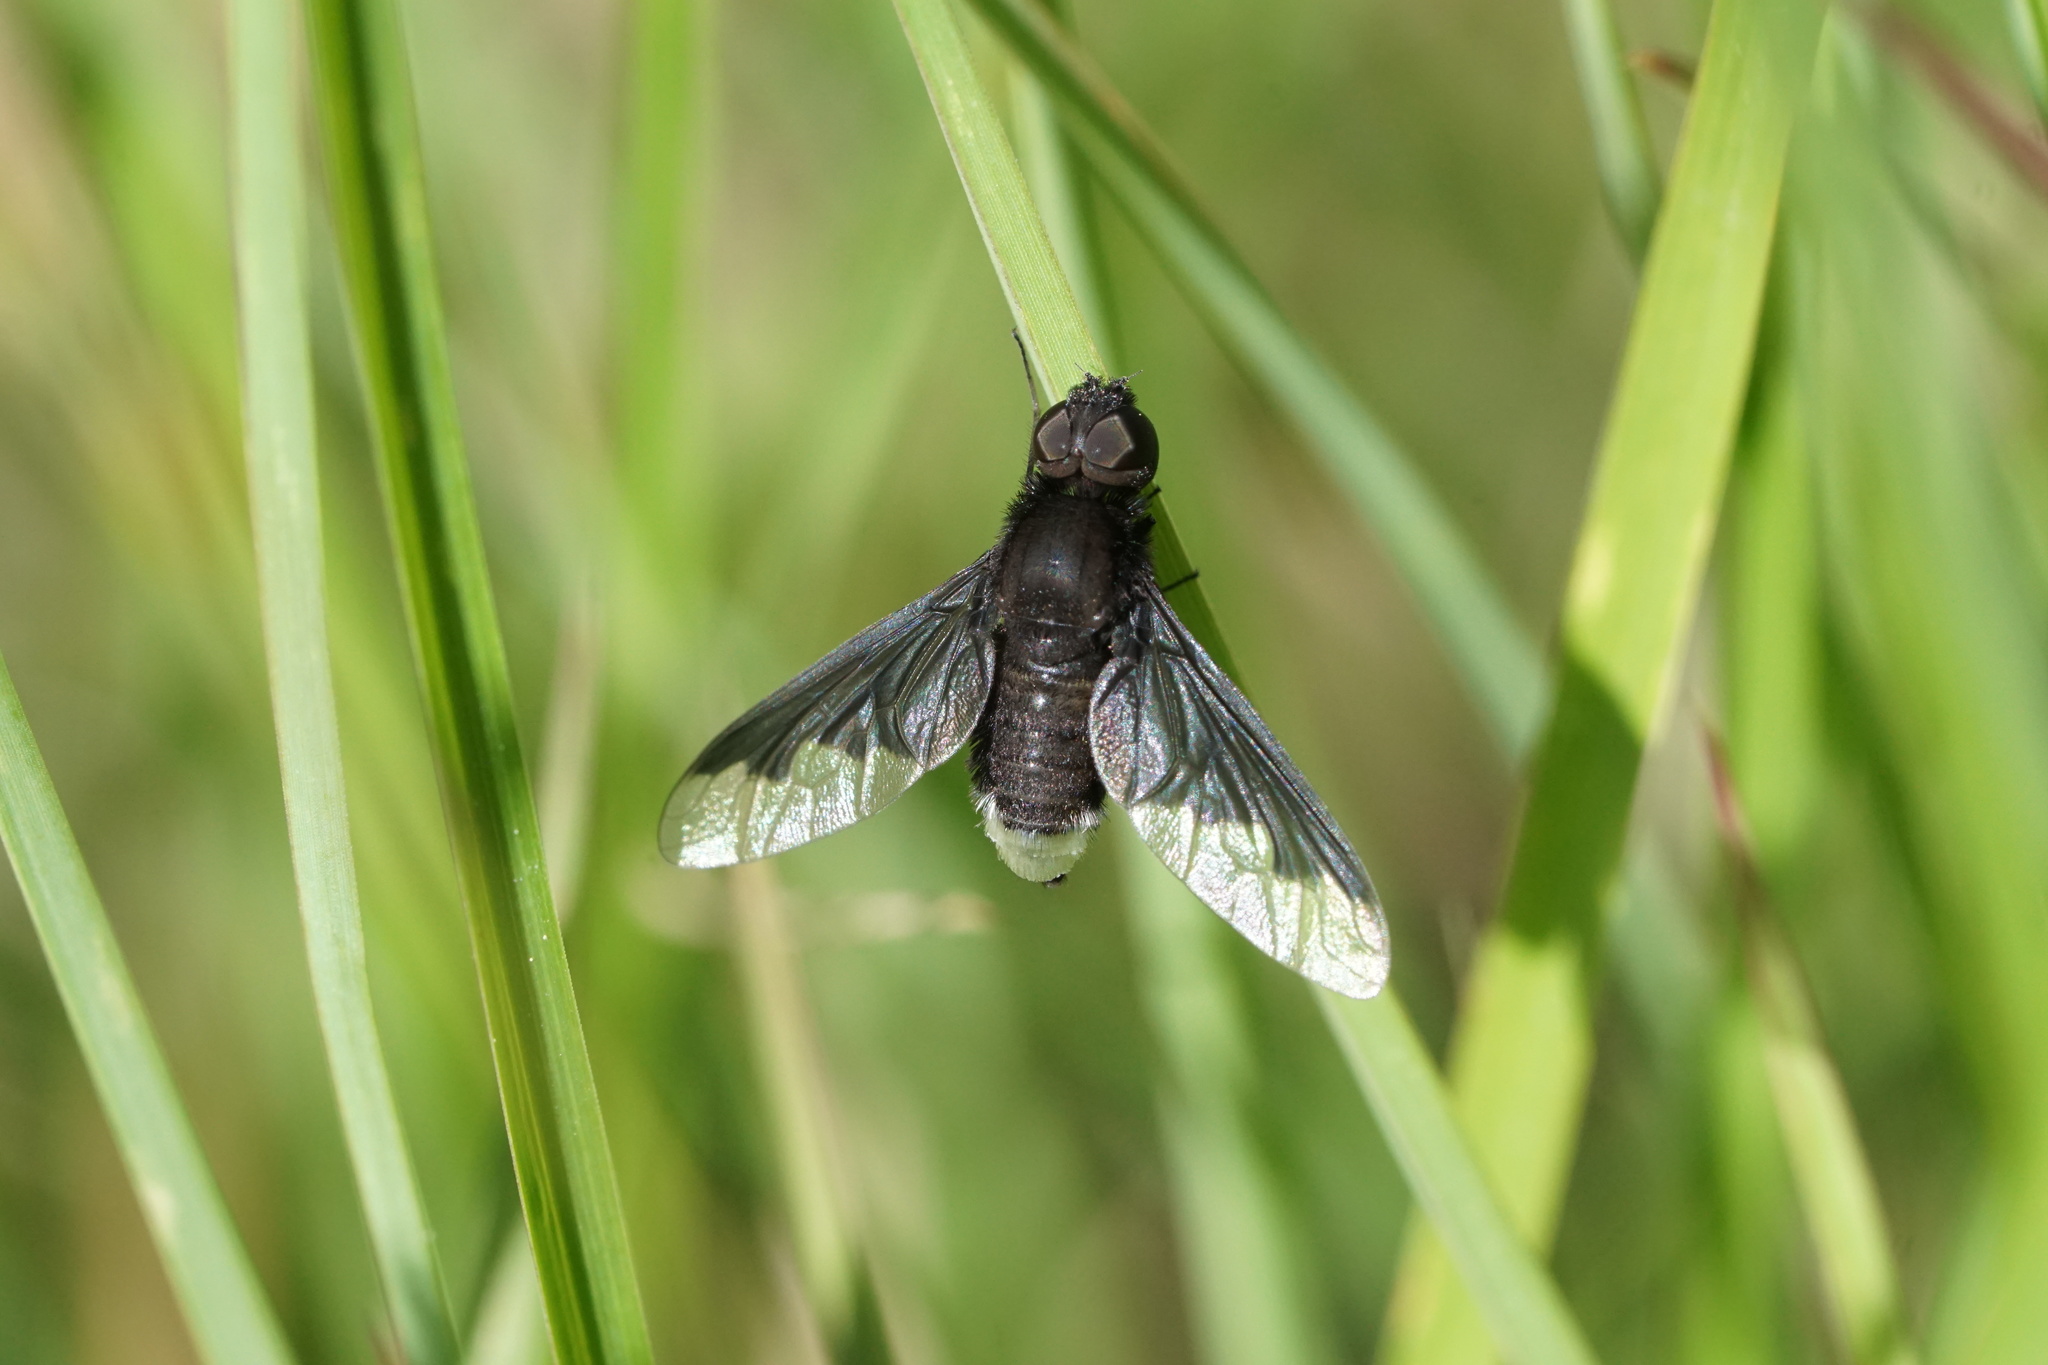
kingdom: Animalia
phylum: Arthropoda
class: Insecta
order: Diptera
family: Bombyliidae
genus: Anthrax
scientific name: Anthrax analis
